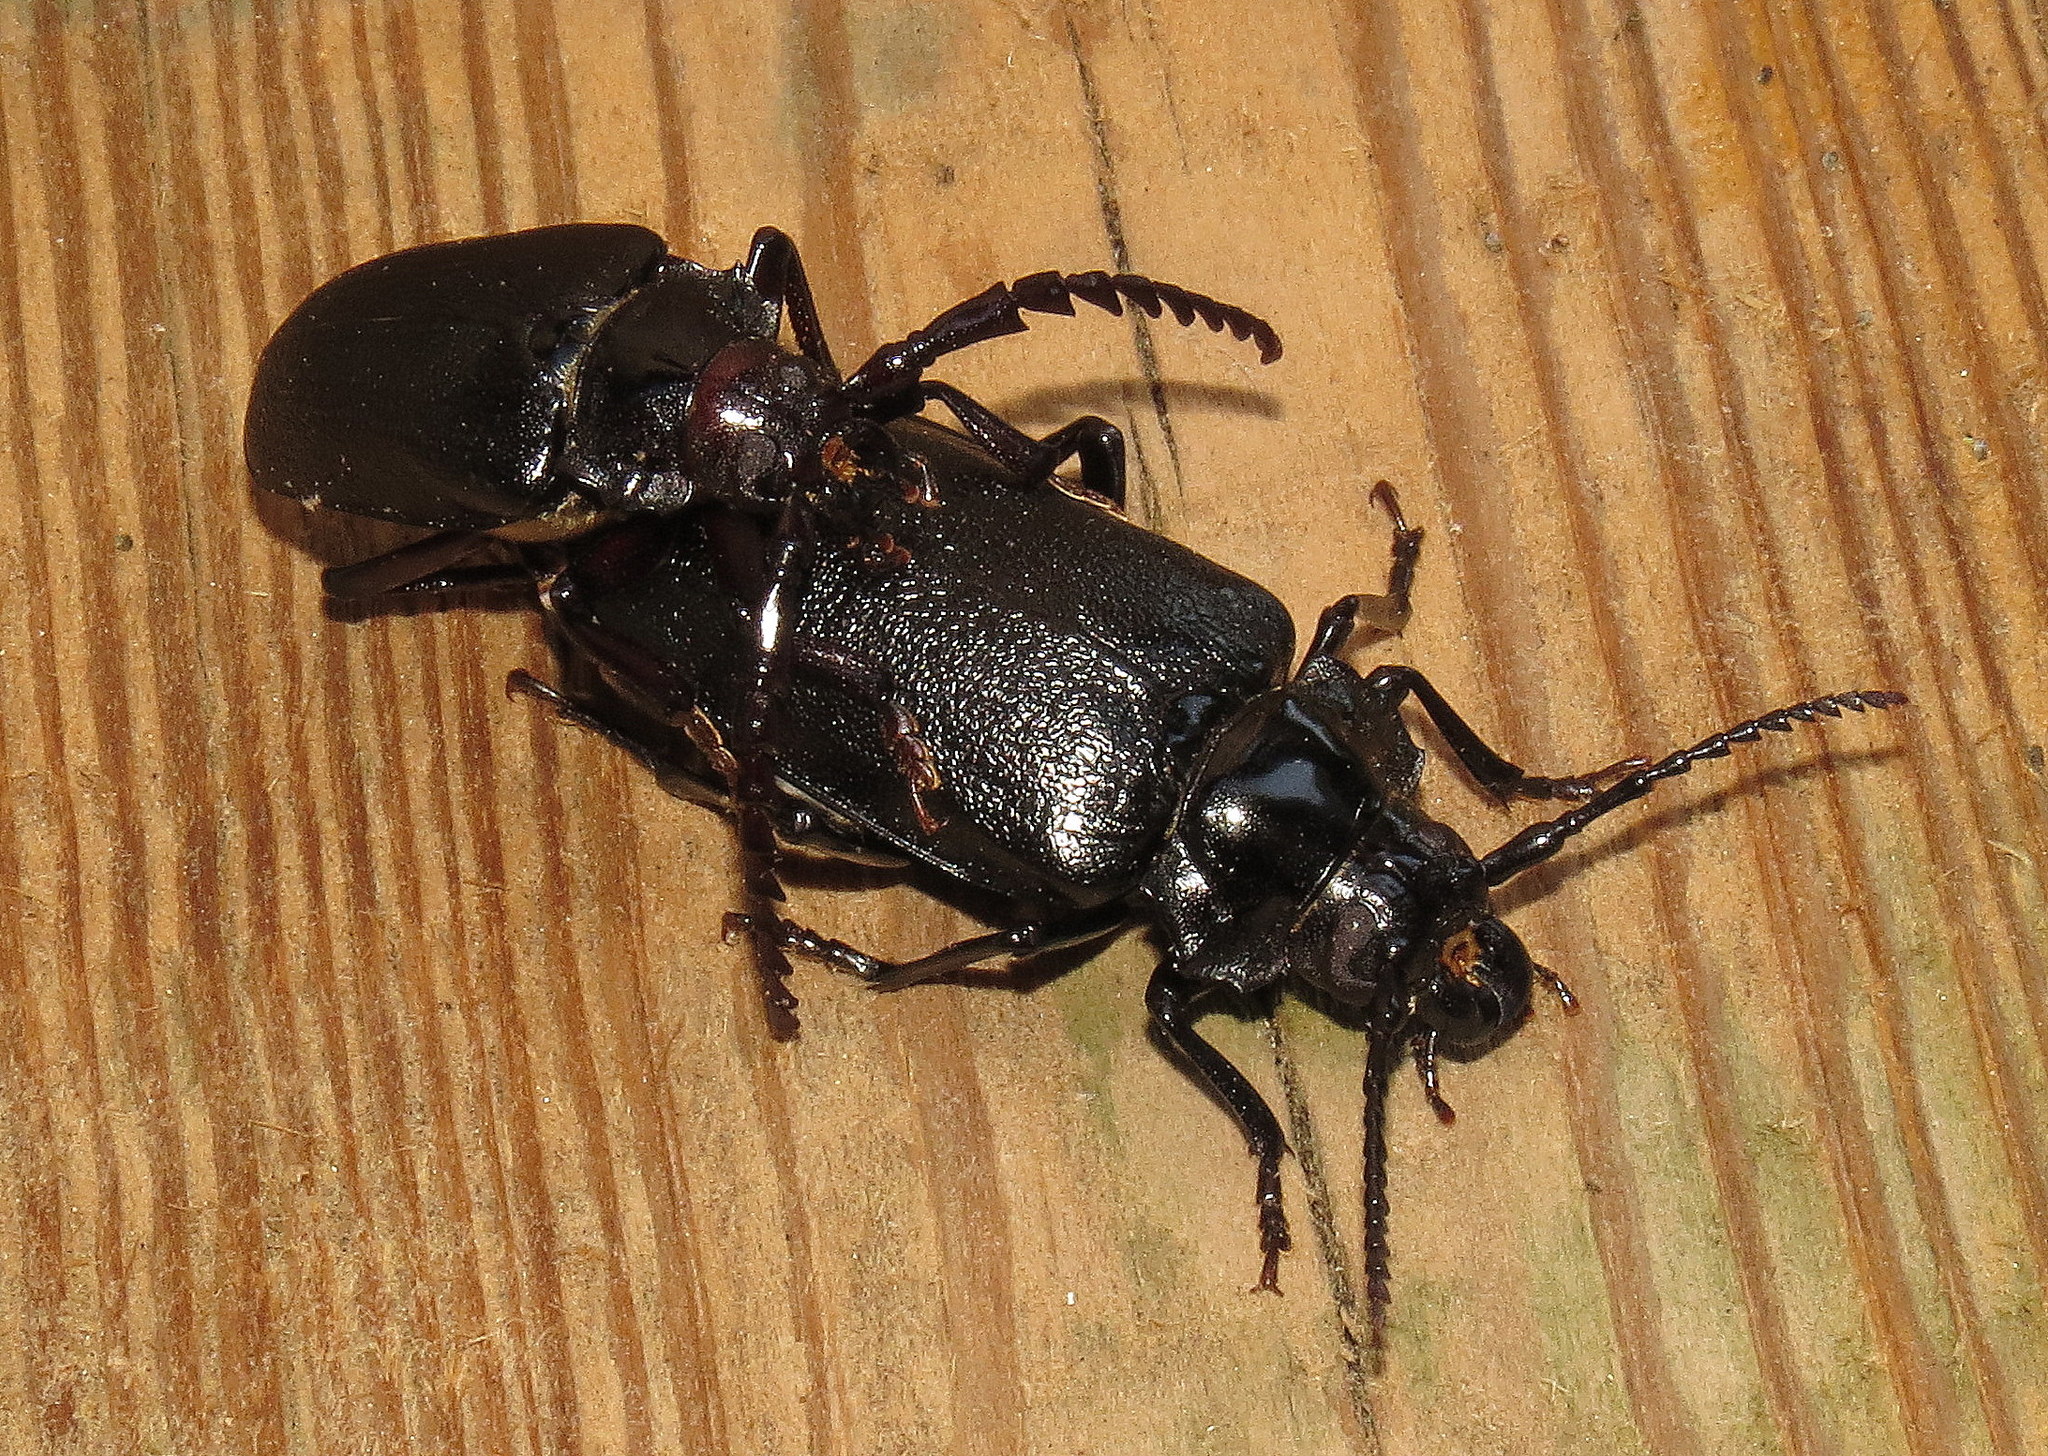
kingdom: Animalia
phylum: Arthropoda
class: Insecta
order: Coleoptera
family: Cerambycidae
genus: Prionus
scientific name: Prionus laticollis
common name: Broad necked prionus
